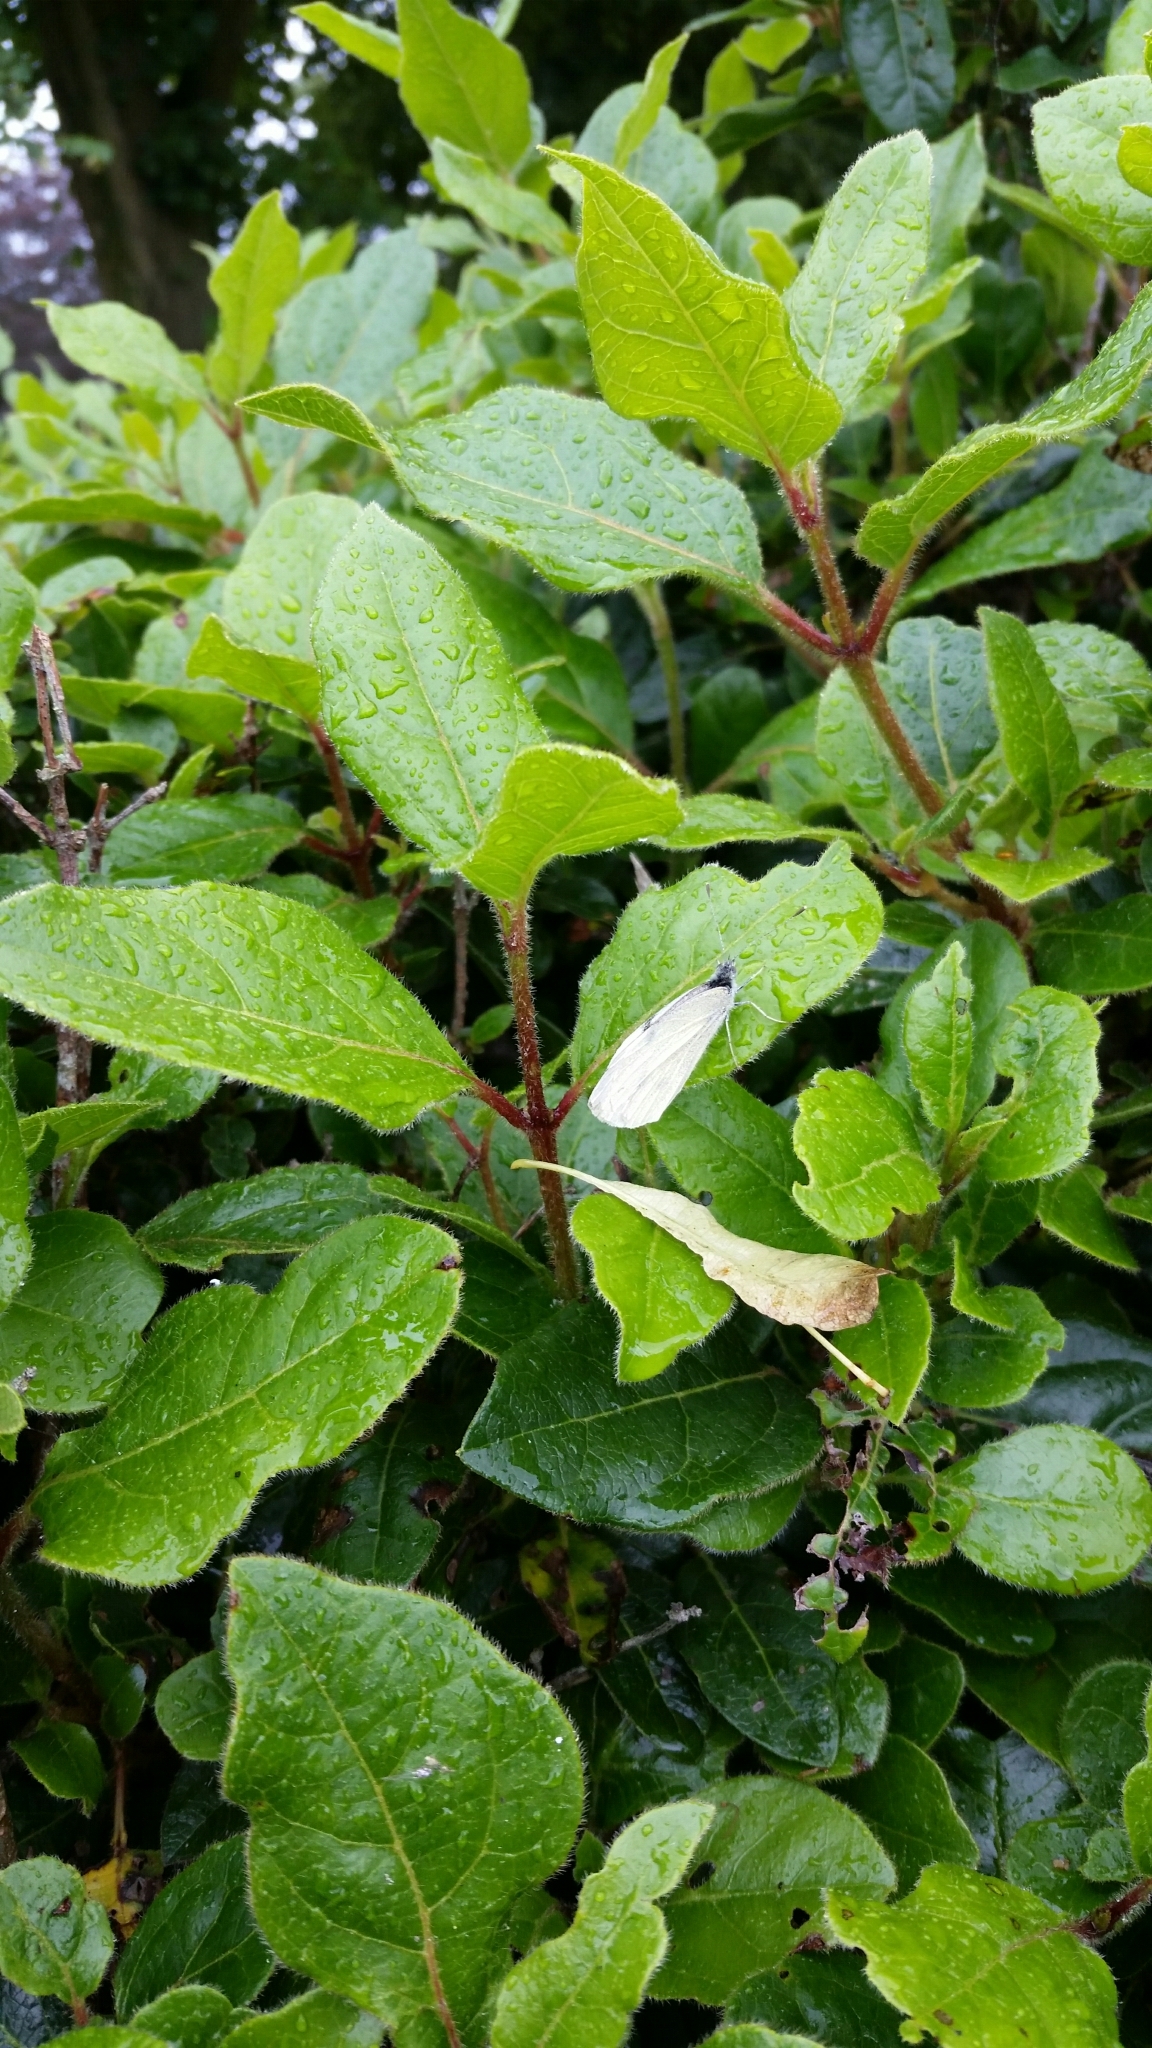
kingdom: Animalia
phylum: Arthropoda
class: Insecta
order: Lepidoptera
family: Pieridae
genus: Pieris
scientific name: Pieris rapae
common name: Small white
